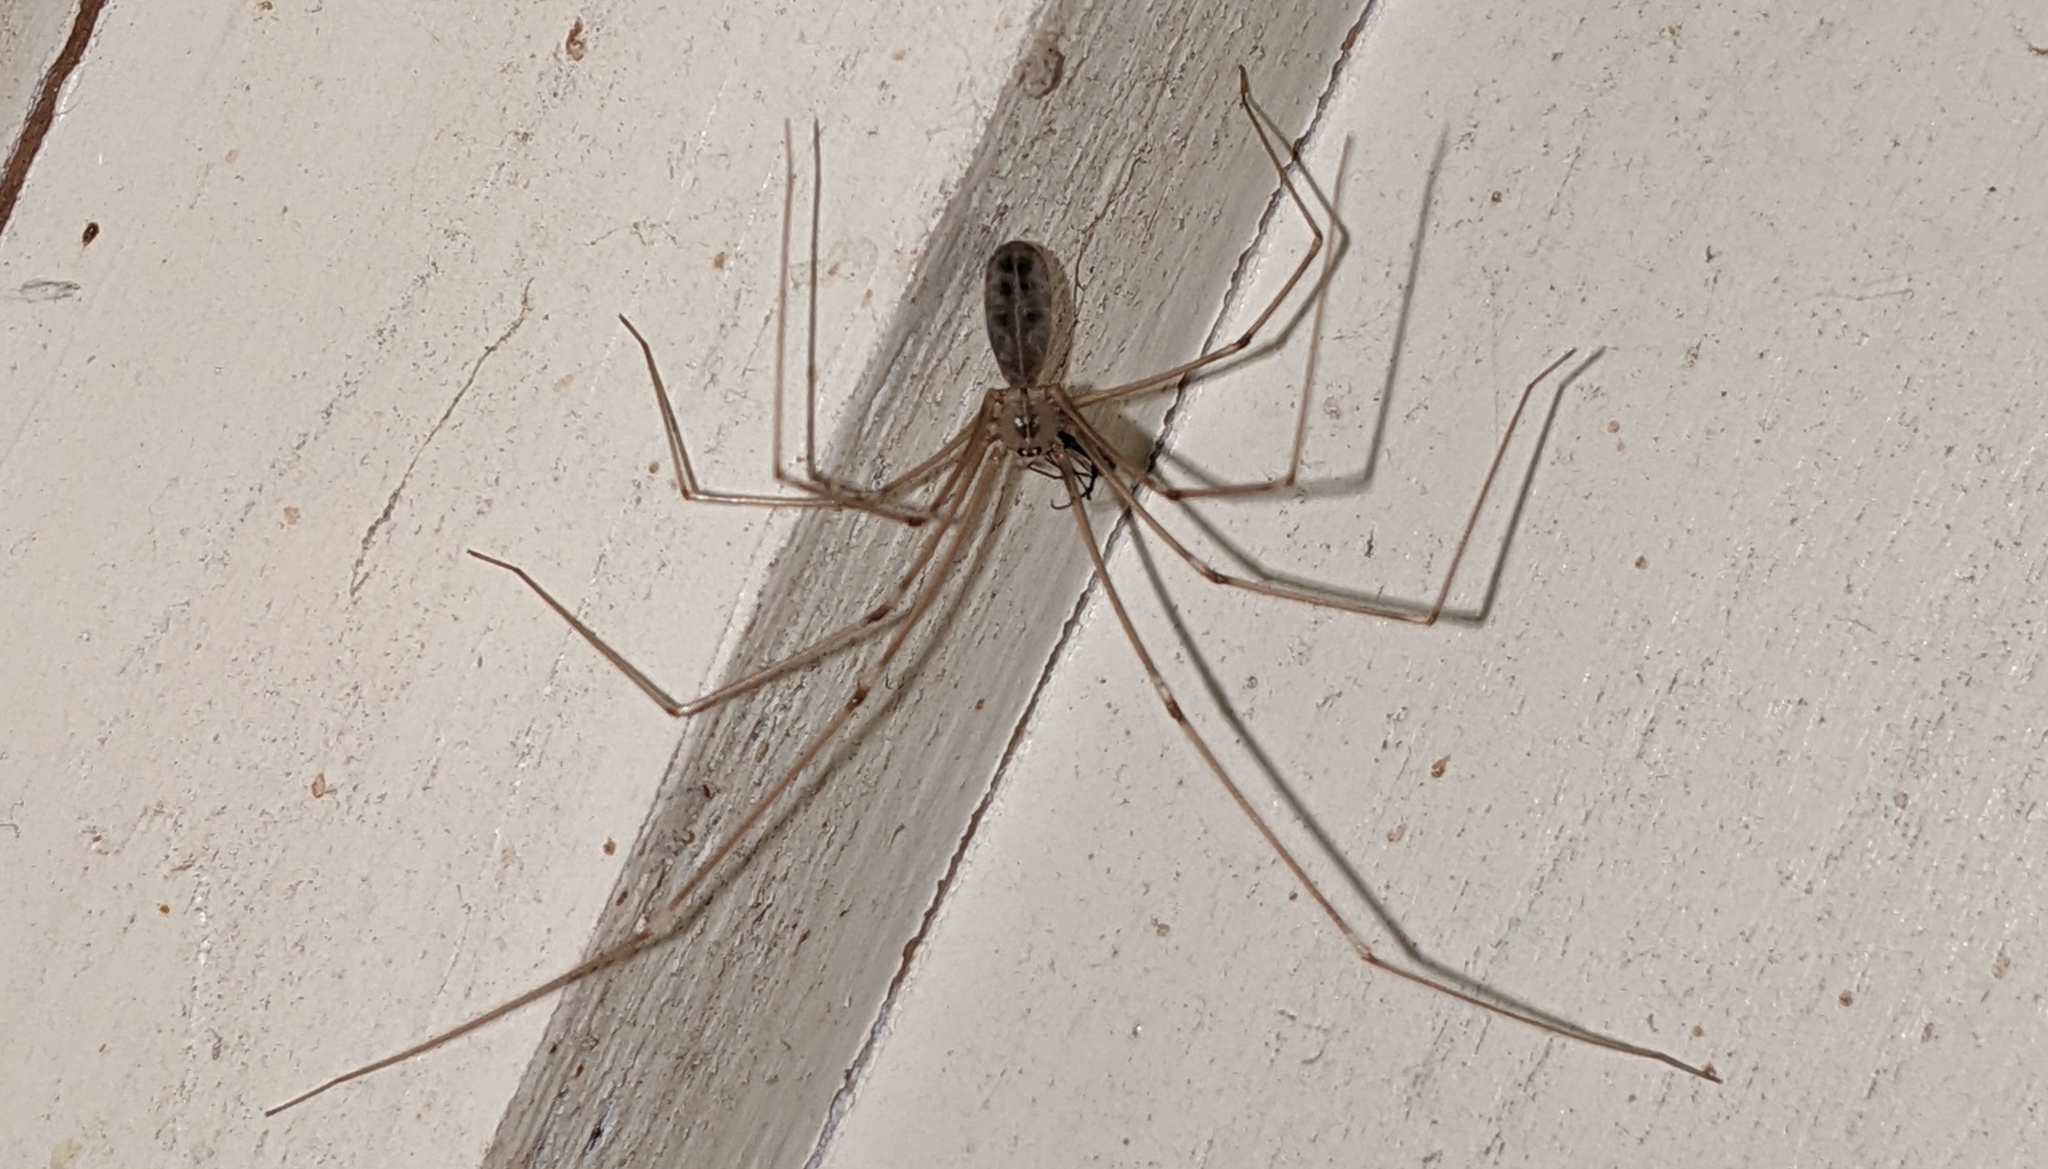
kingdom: Animalia
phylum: Arthropoda
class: Arachnida
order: Araneae
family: Pholcidae
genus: Pholcus
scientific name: Pholcus phalangioides
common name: Longbodied cellar spider
